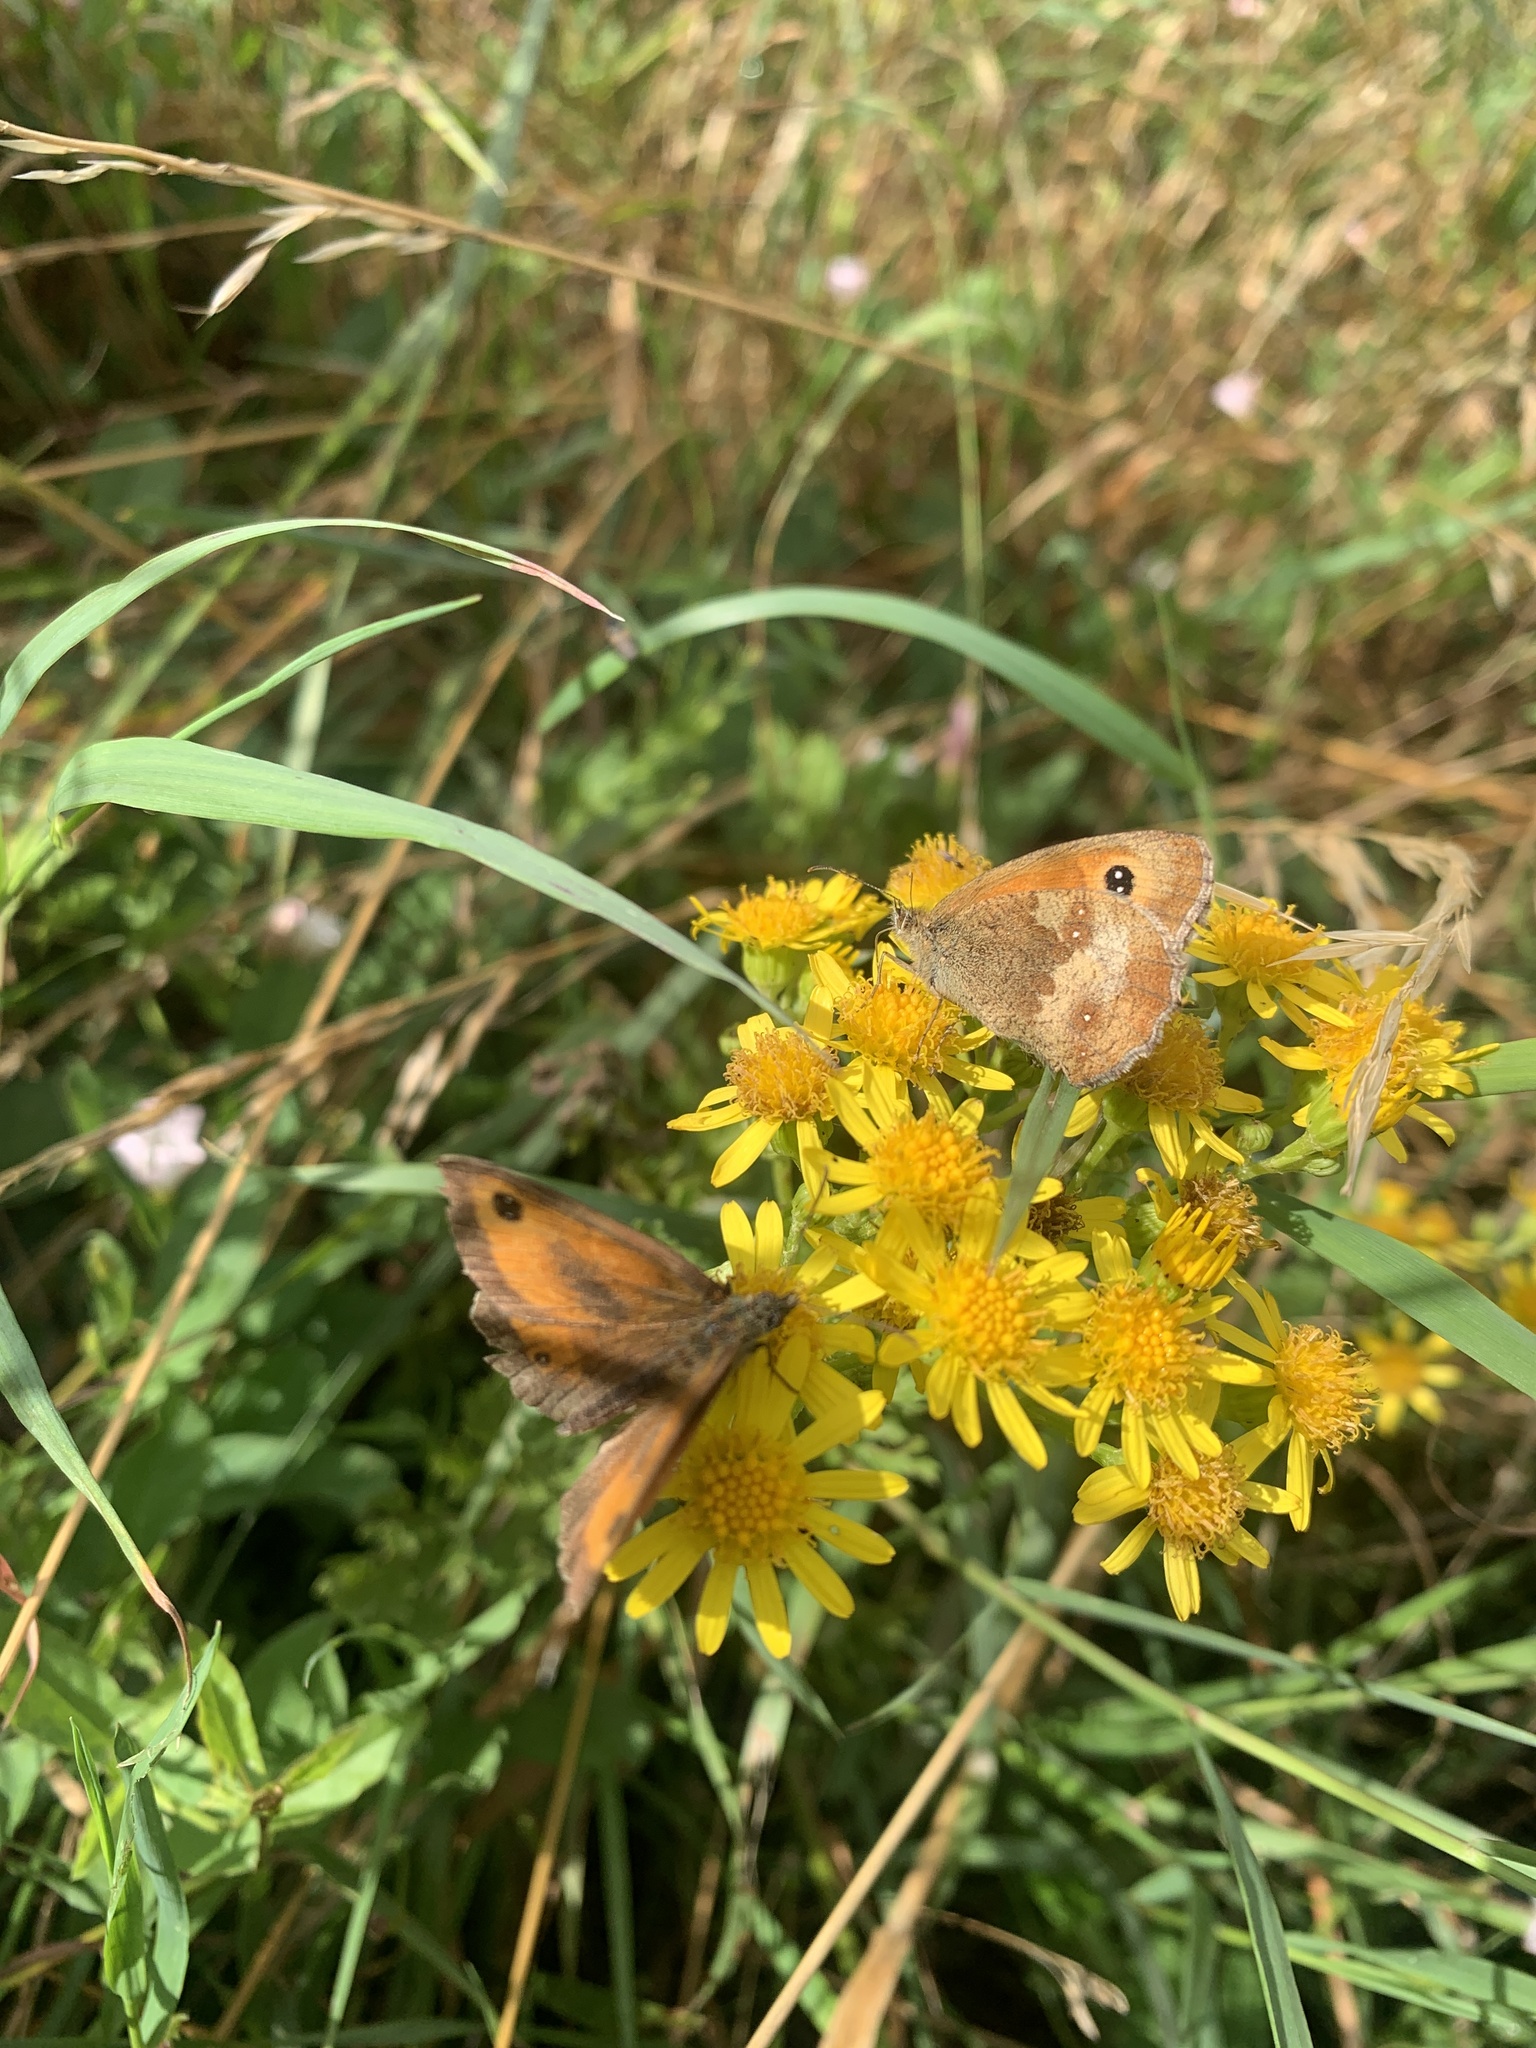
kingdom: Animalia
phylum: Arthropoda
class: Insecta
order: Lepidoptera
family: Nymphalidae
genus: Pyronia
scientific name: Pyronia tithonus
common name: Gatekeeper
